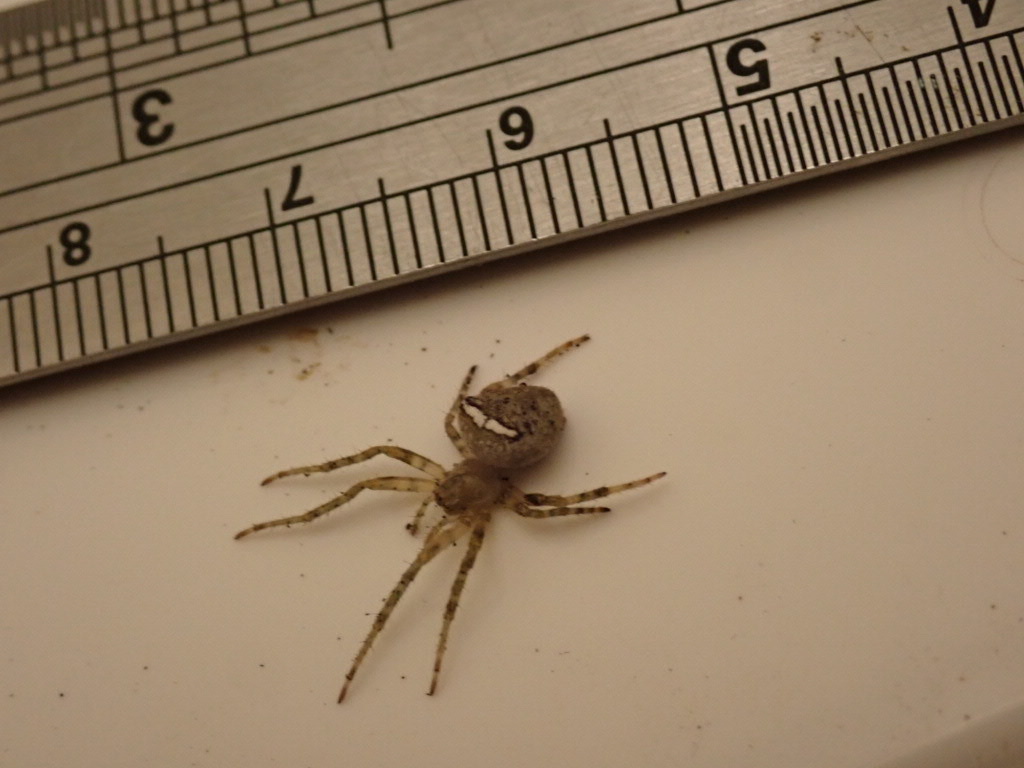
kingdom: Animalia
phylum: Arthropoda
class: Arachnida
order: Araneae
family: Araneidae
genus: Zealaranea
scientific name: Zealaranea crassa
